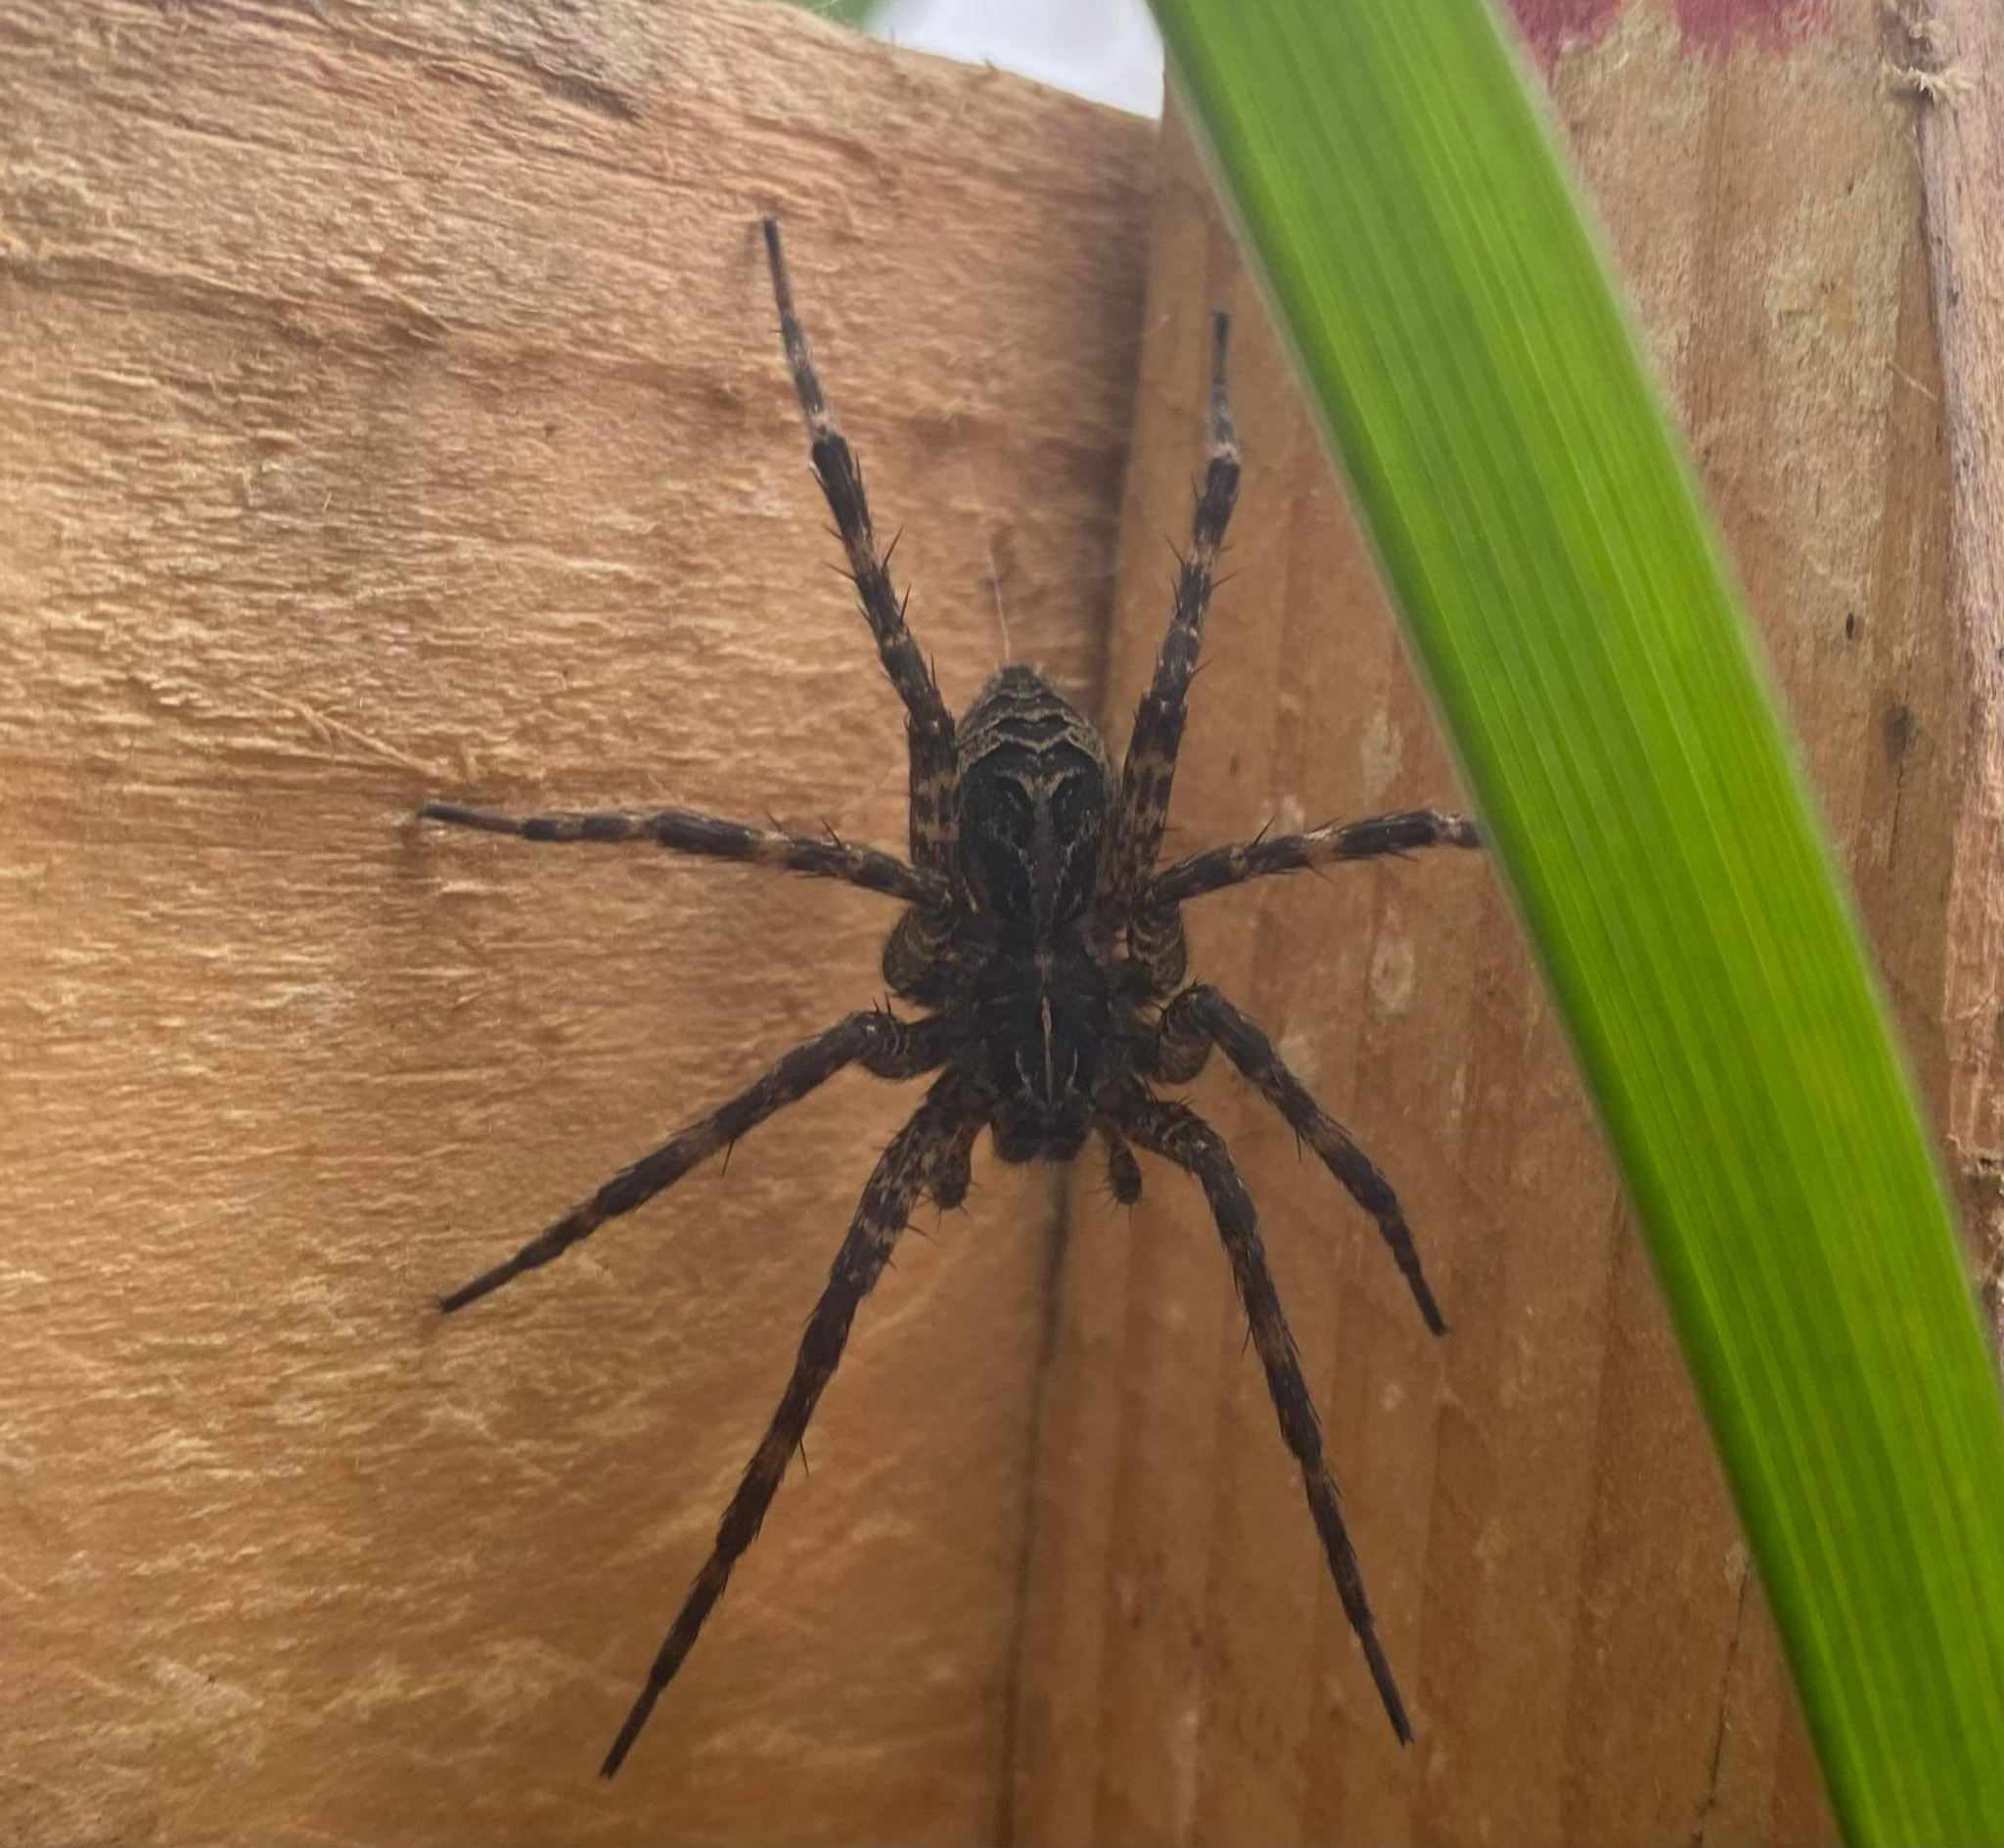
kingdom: Animalia
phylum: Arthropoda
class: Arachnida
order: Araneae
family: Pisauridae
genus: Dolomedes
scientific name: Dolomedes scriptus
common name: Striped fishing spider
